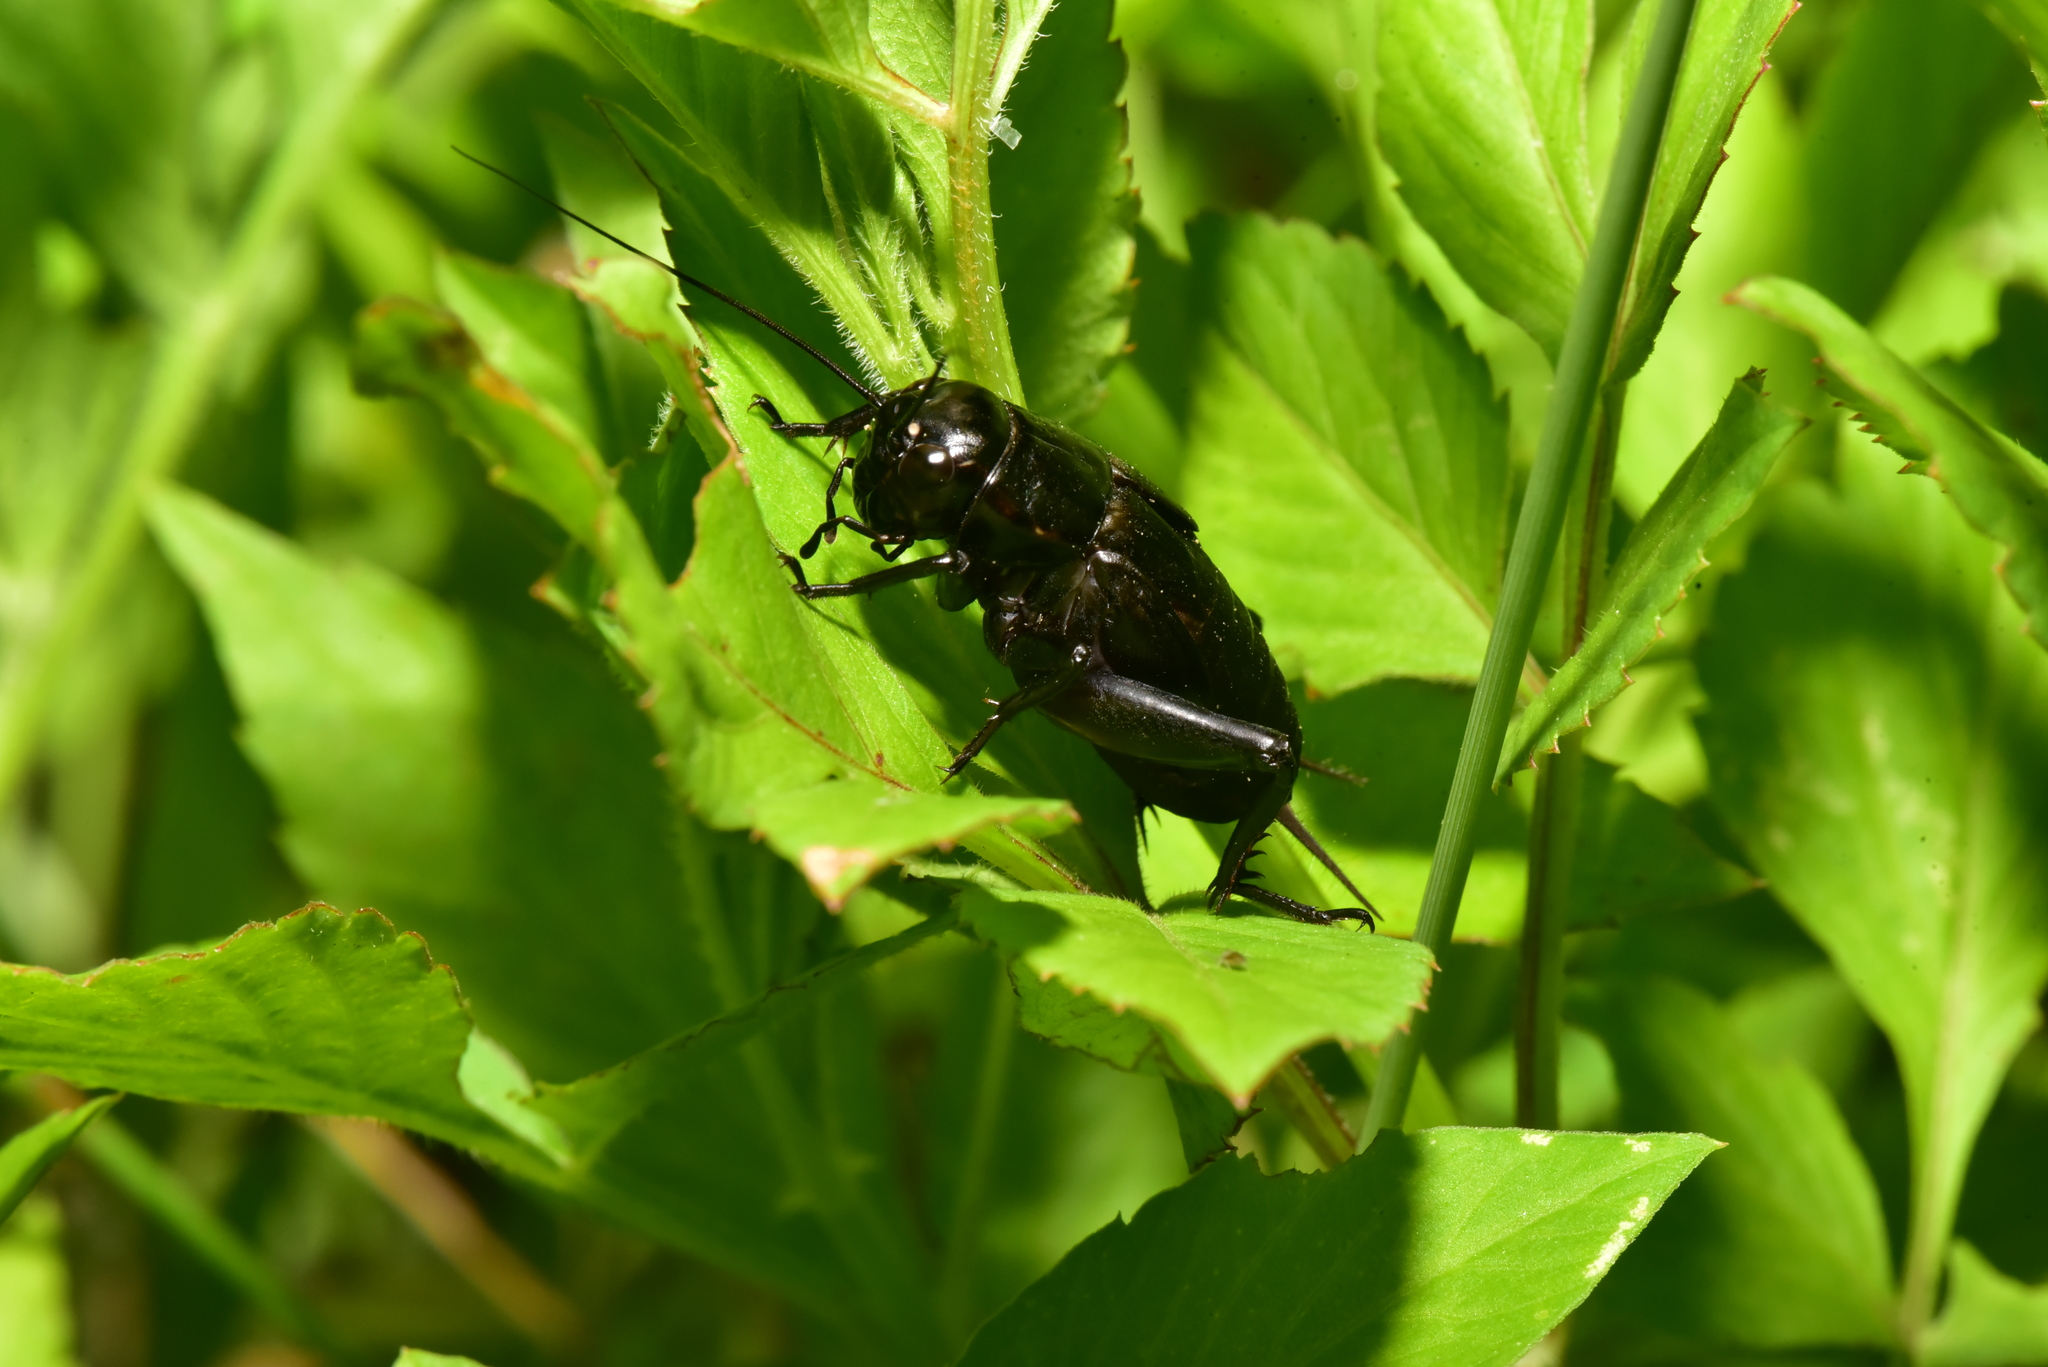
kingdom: Animalia
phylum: Arthropoda
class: Insecta
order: Orthoptera
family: Gryllidae
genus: Gryllus
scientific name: Gryllus bimaculatus
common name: Two-spotted cricket
